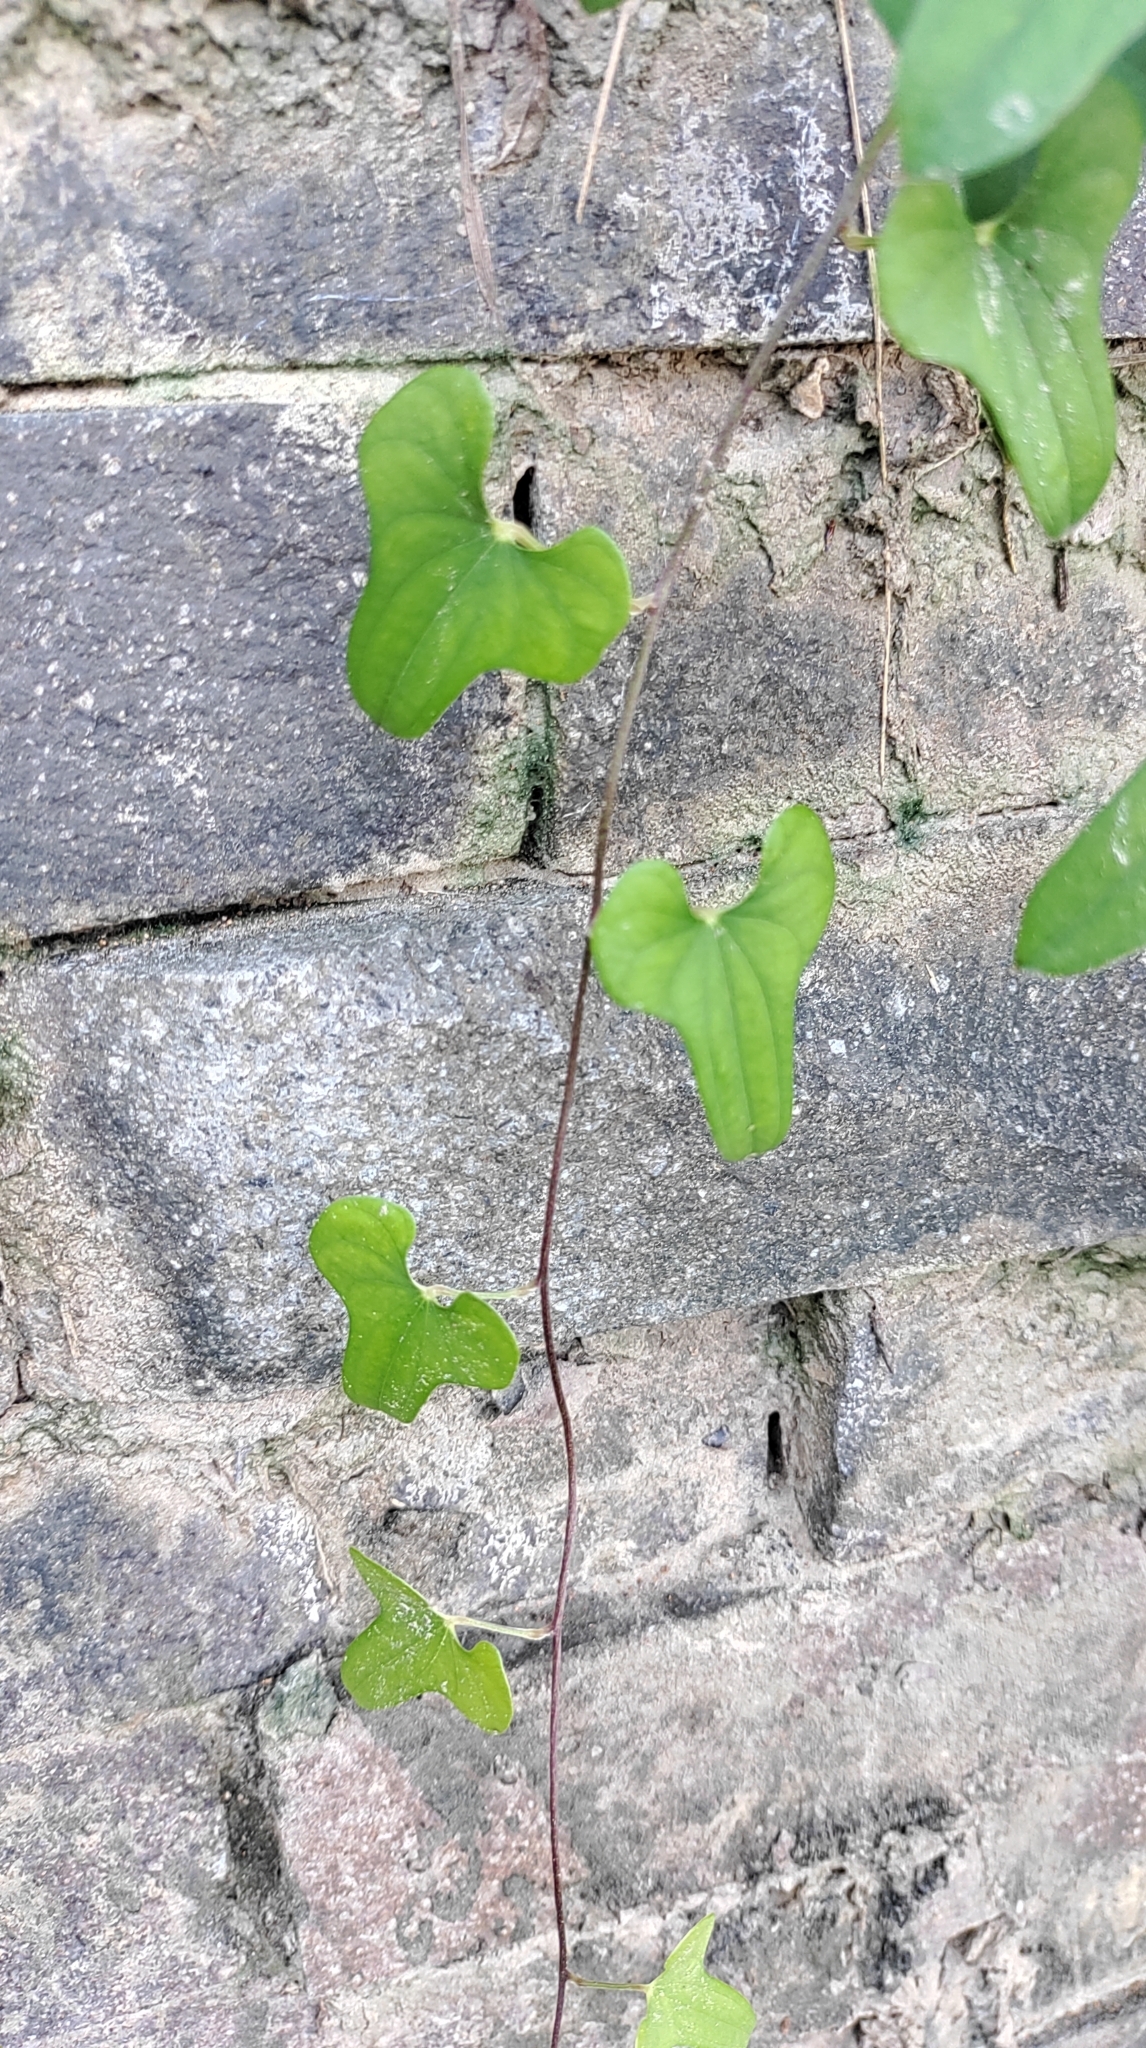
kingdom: Plantae
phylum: Tracheophyta
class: Liliopsida
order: Dioscoreales
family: Dioscoreaceae
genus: Dioscorea
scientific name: Dioscorea polystachya
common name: Chinese yam
